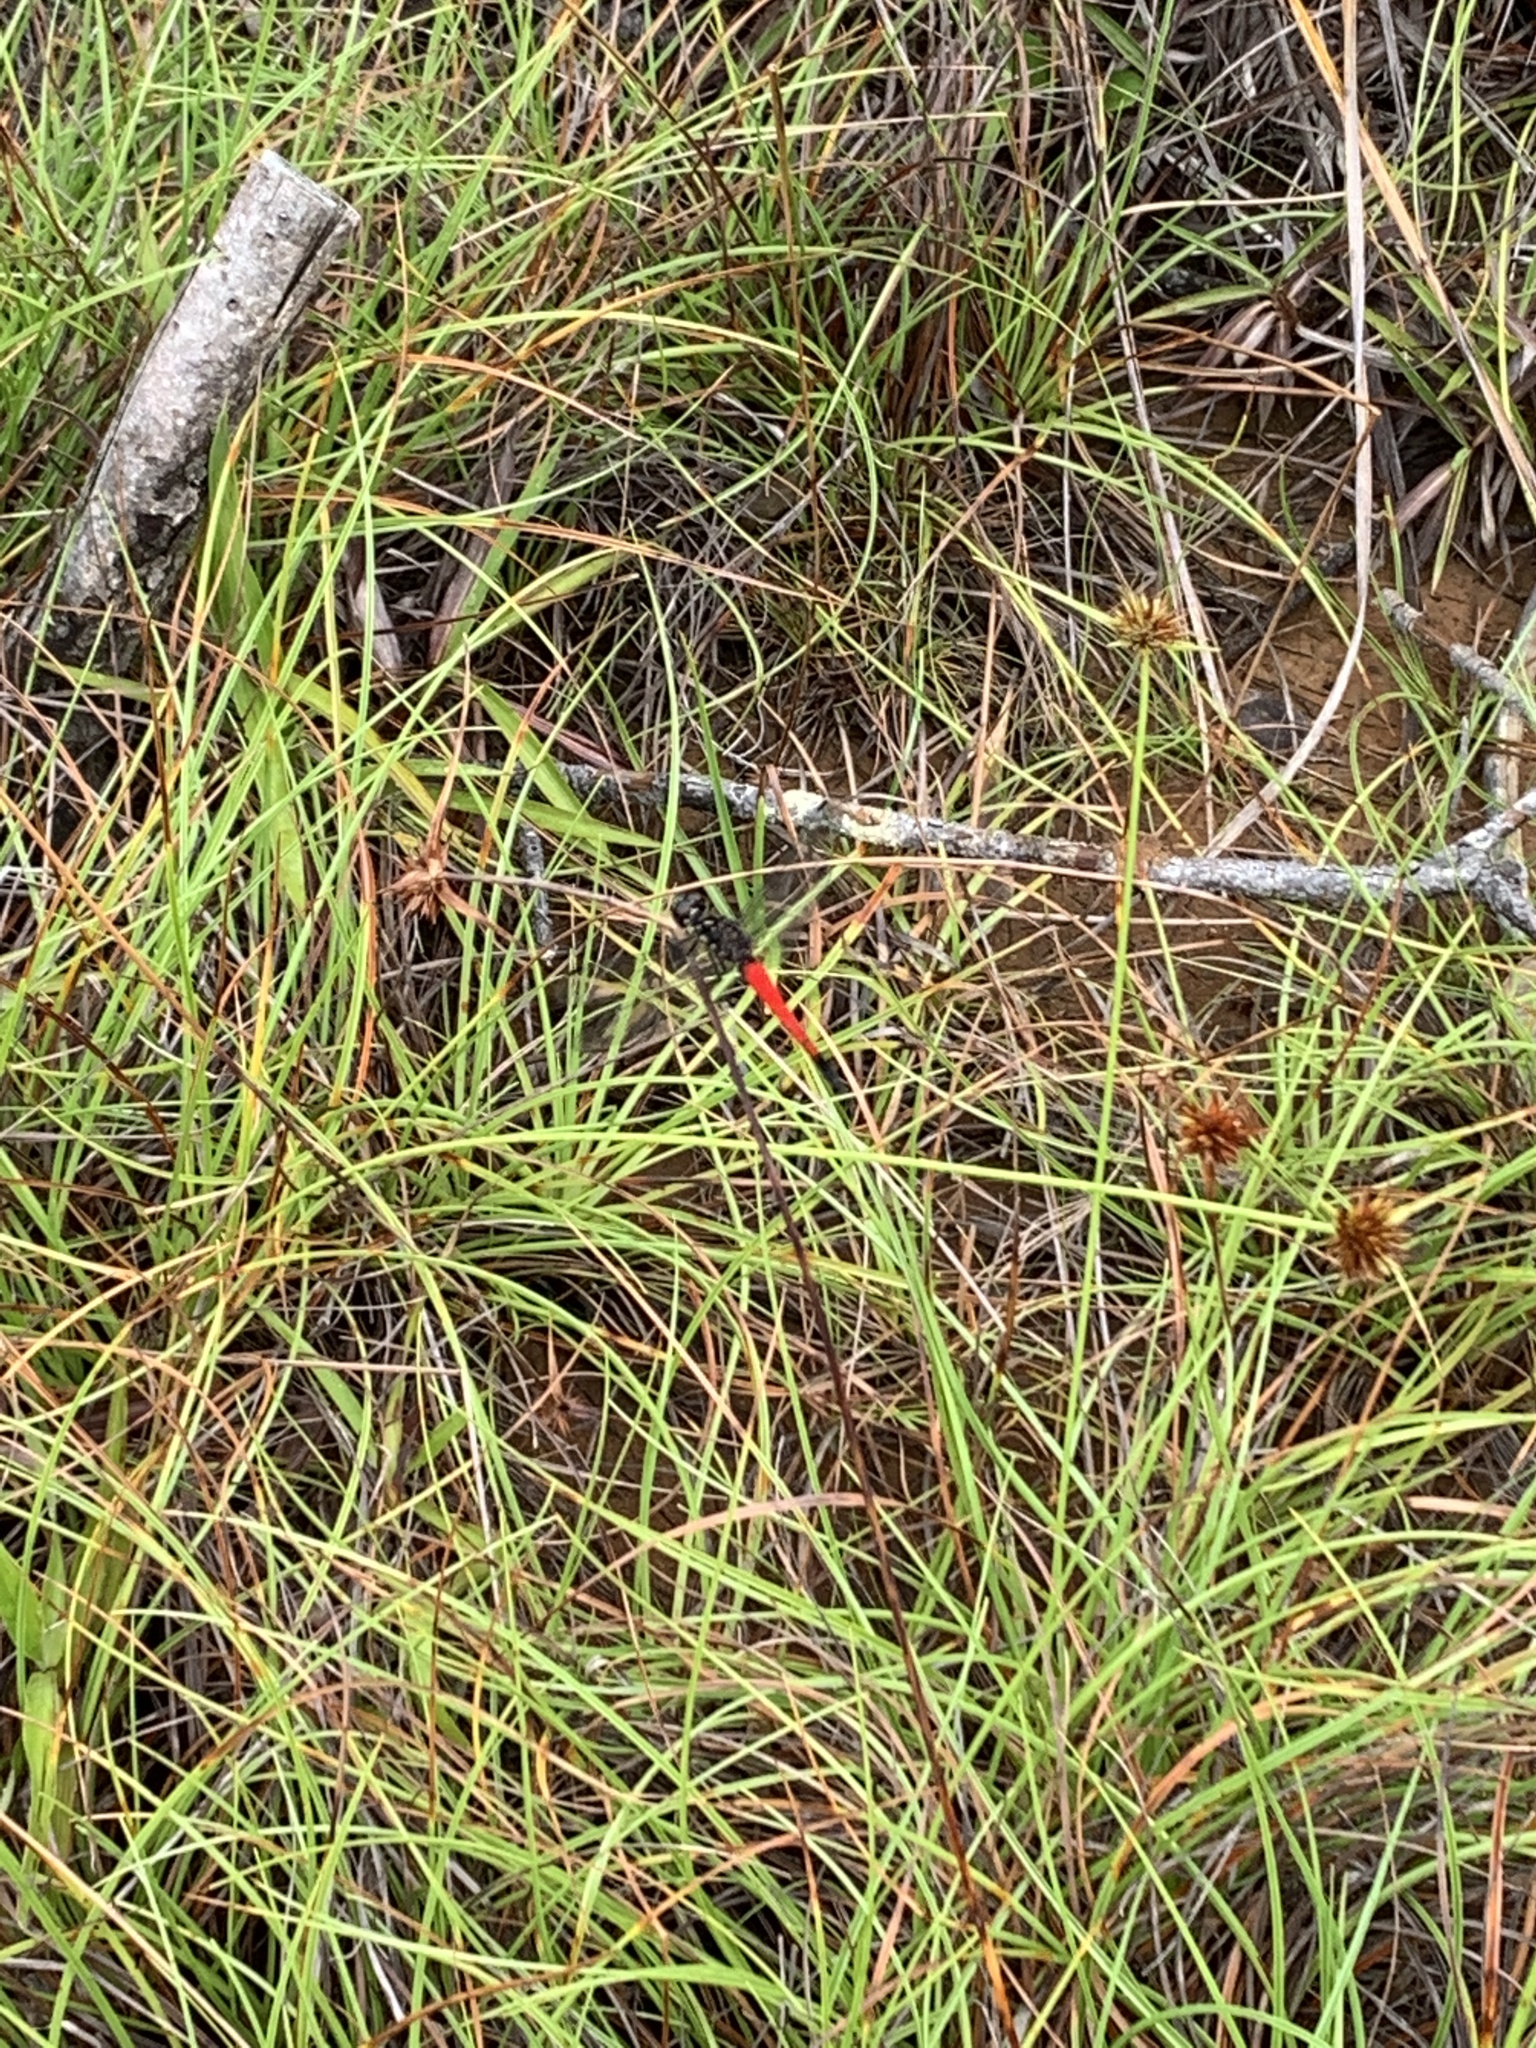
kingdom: Animalia
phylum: Arthropoda
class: Insecta
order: Odonata
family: Libellulidae
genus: Boninthemis
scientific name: Boninthemis insularis
